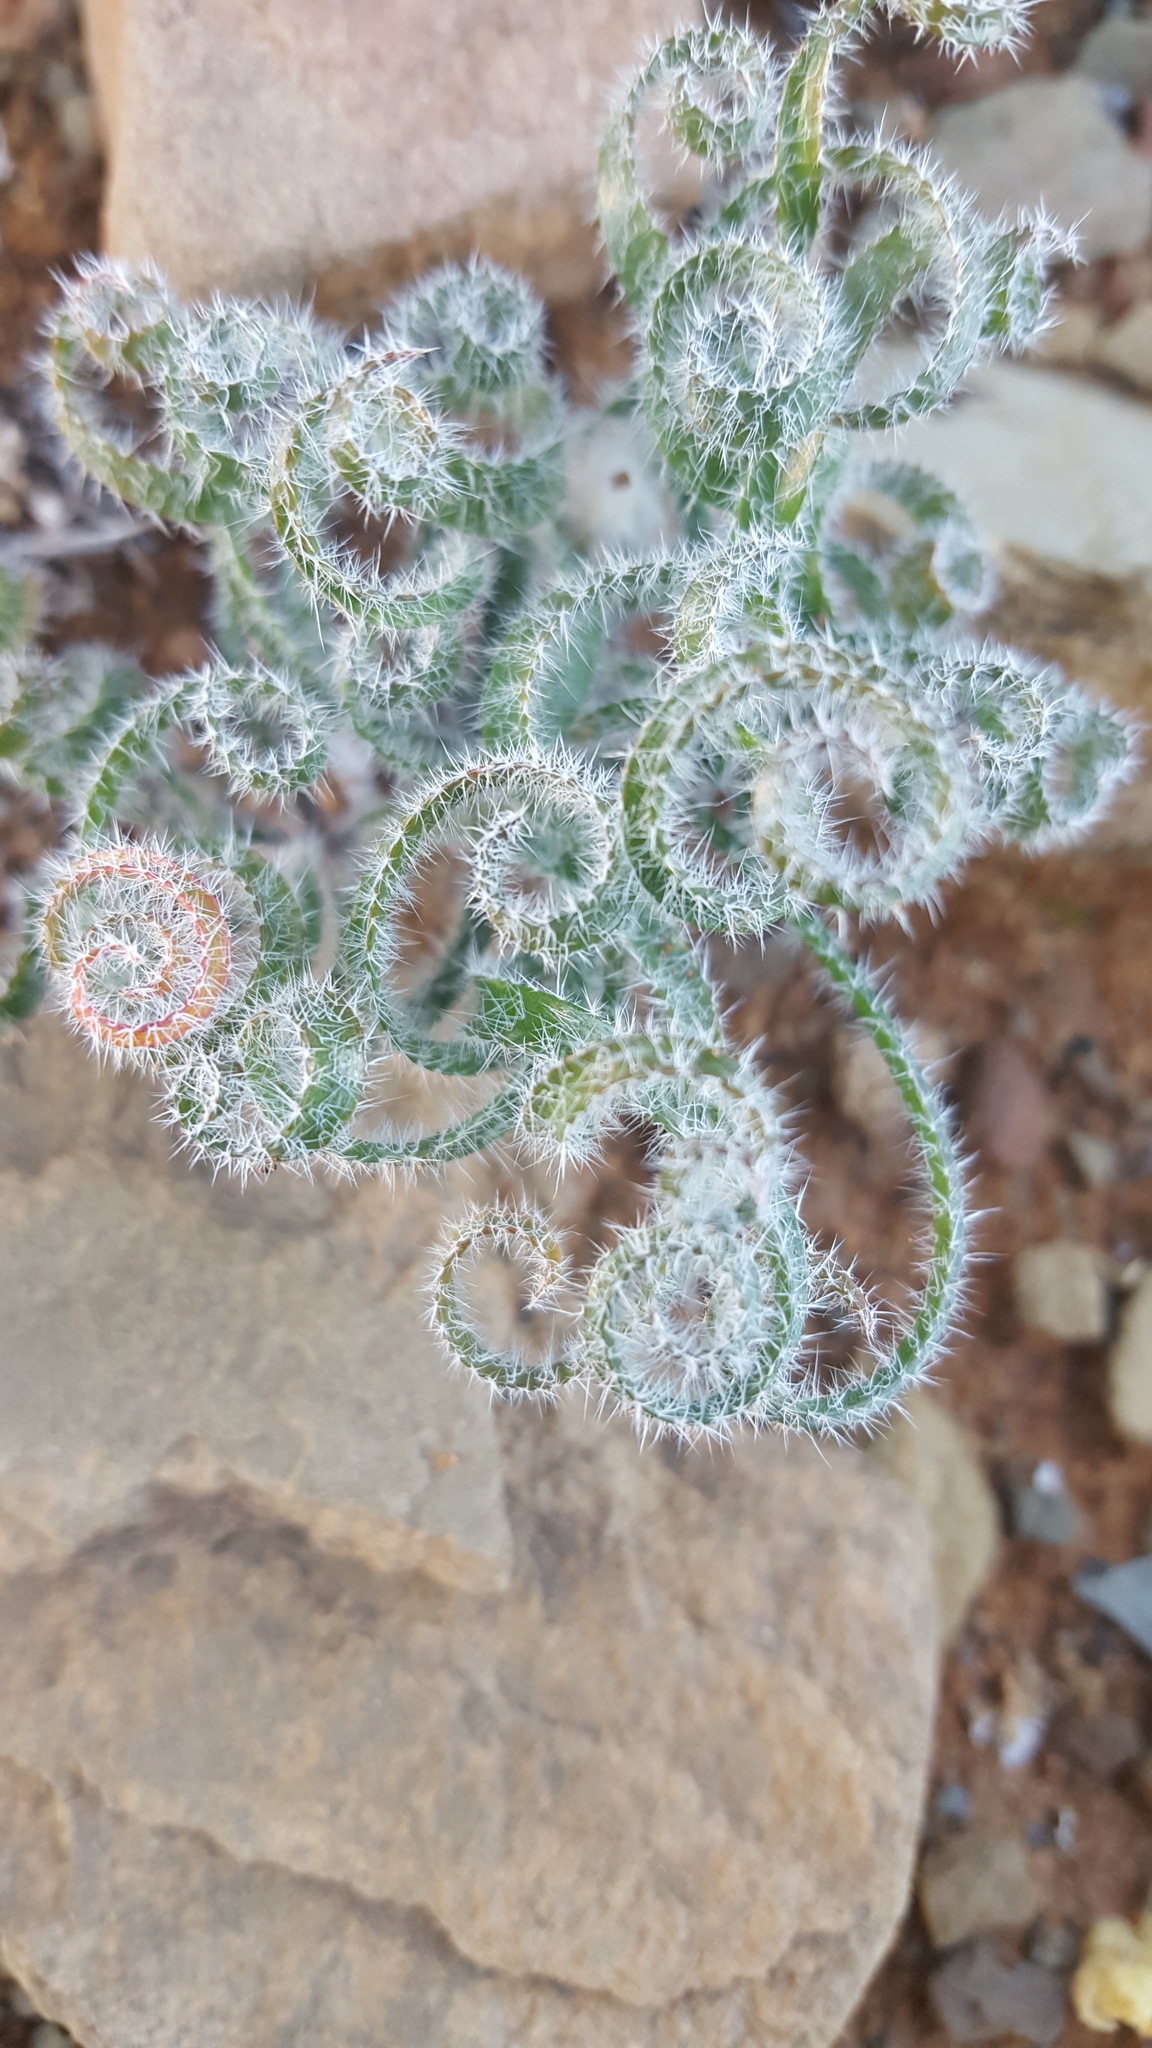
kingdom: Plantae
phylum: Tracheophyta
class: Liliopsida
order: Asparagales
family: Amaryllidaceae
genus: Gethyllis
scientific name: Gethyllis villosa
